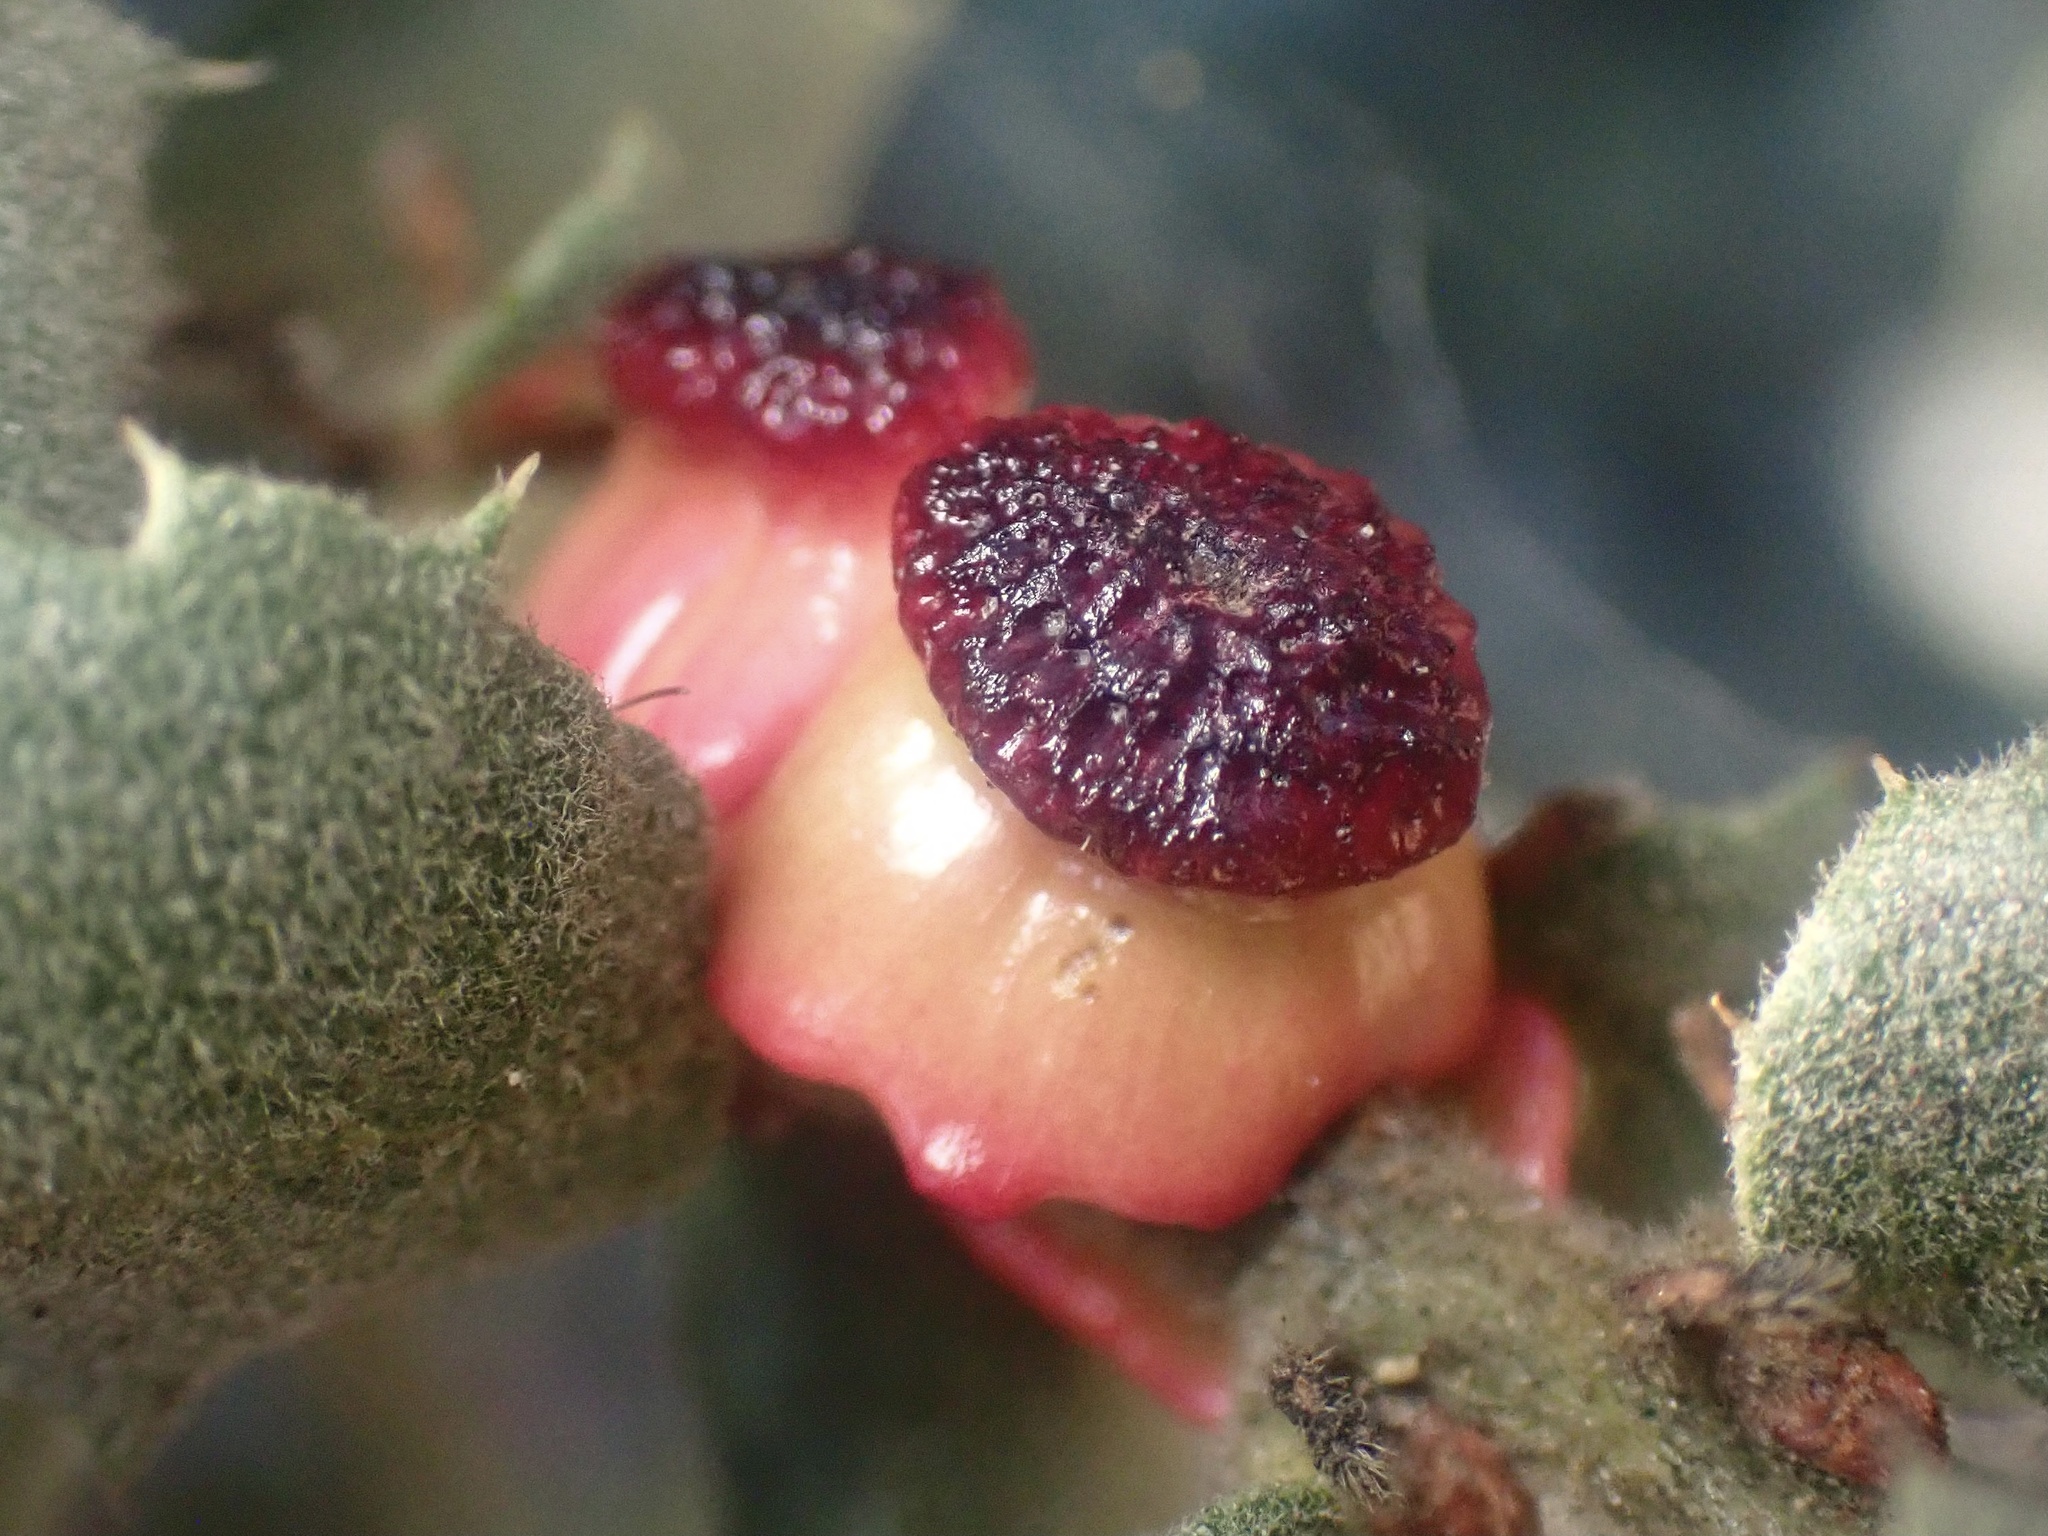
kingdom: Animalia
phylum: Arthropoda
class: Insecta
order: Hymenoptera
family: Cynipidae
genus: Disholcaspis
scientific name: Disholcaspis prehensa
